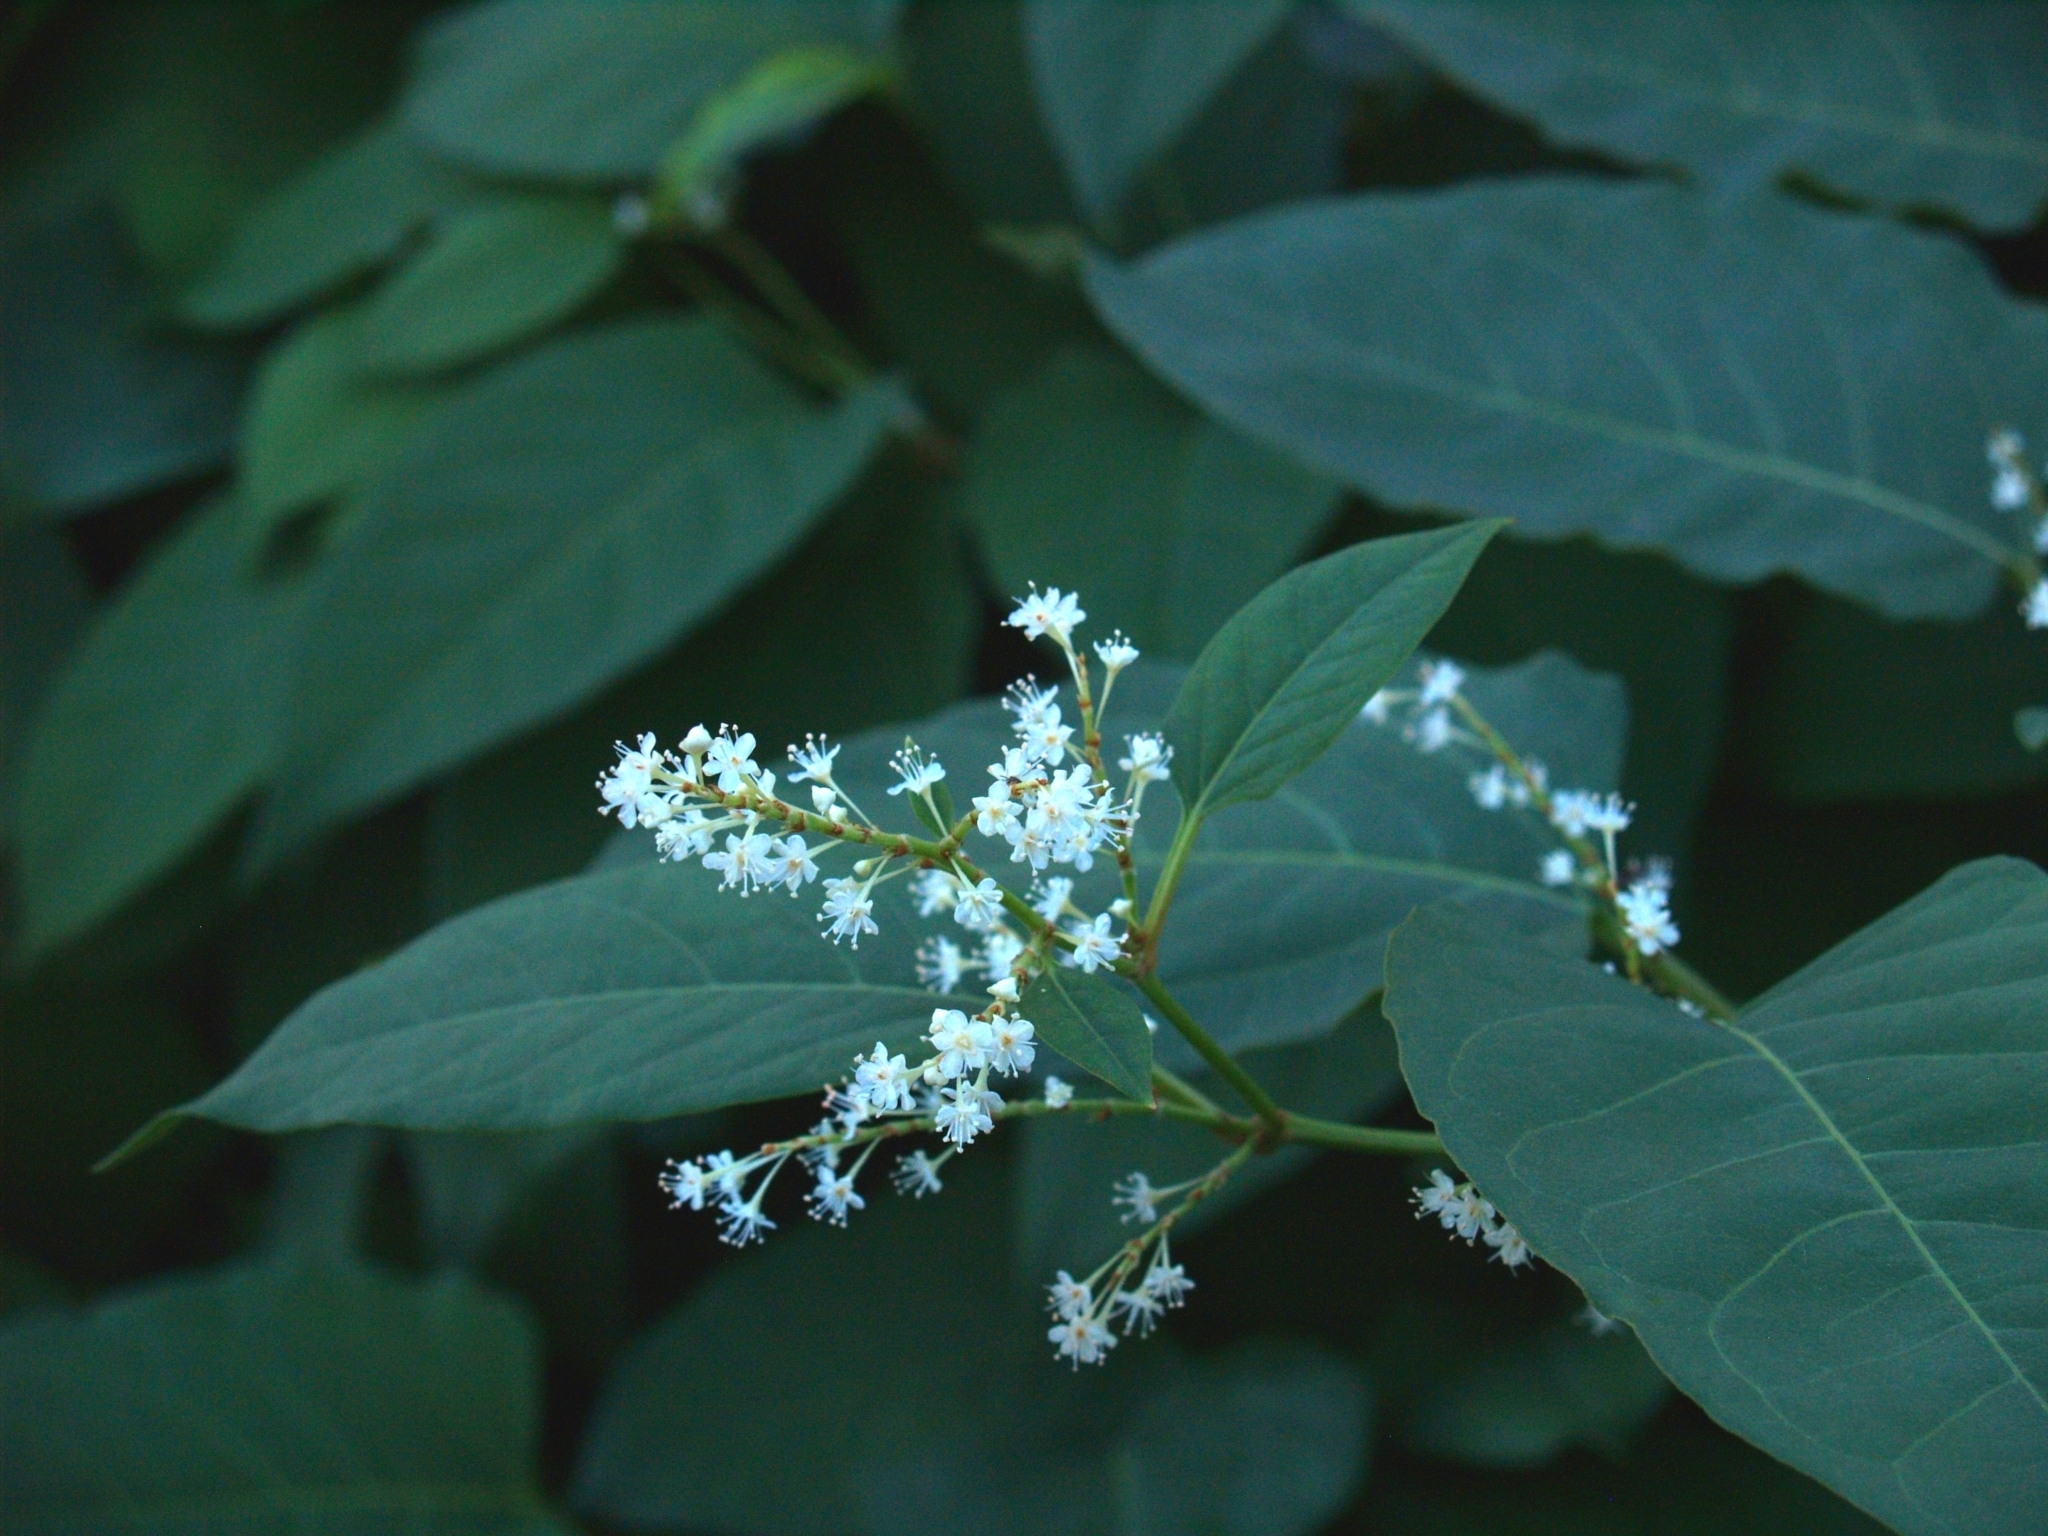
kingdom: Plantae
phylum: Tracheophyta
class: Magnoliopsida
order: Caryophyllales
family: Polygonaceae
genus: Reynoutria
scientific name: Reynoutria japonica
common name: Japanese knotweed
